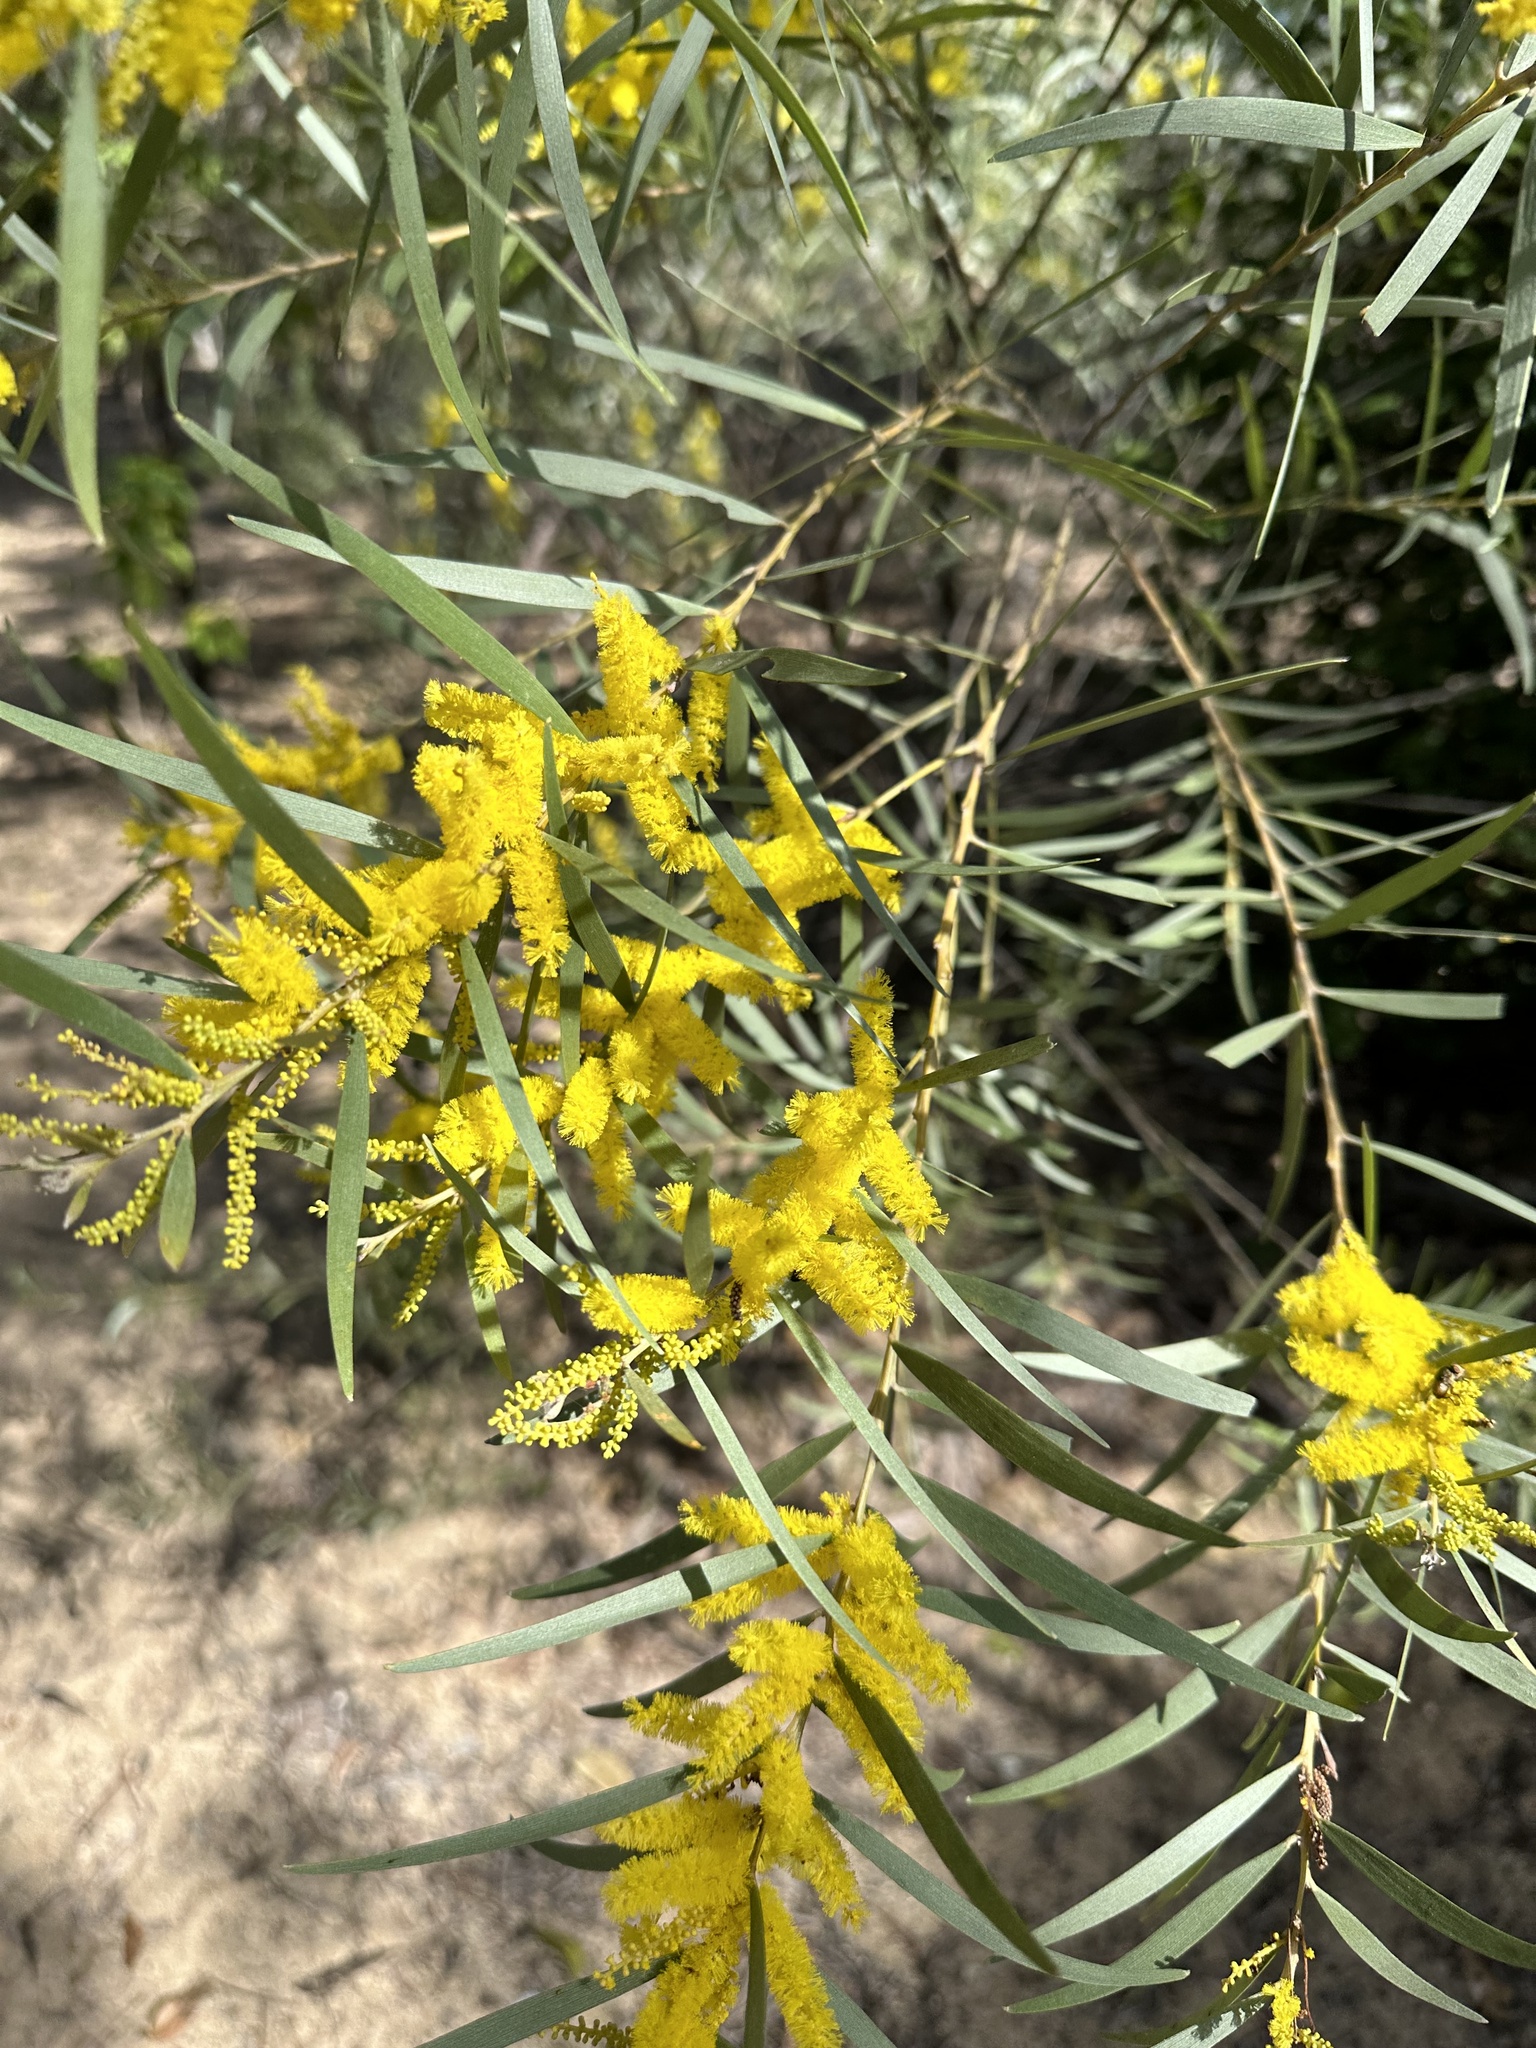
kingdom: Plantae
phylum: Tracheophyta
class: Magnoliopsida
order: Fabales
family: Fabaceae
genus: Acacia
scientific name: Acacia leptostachya
